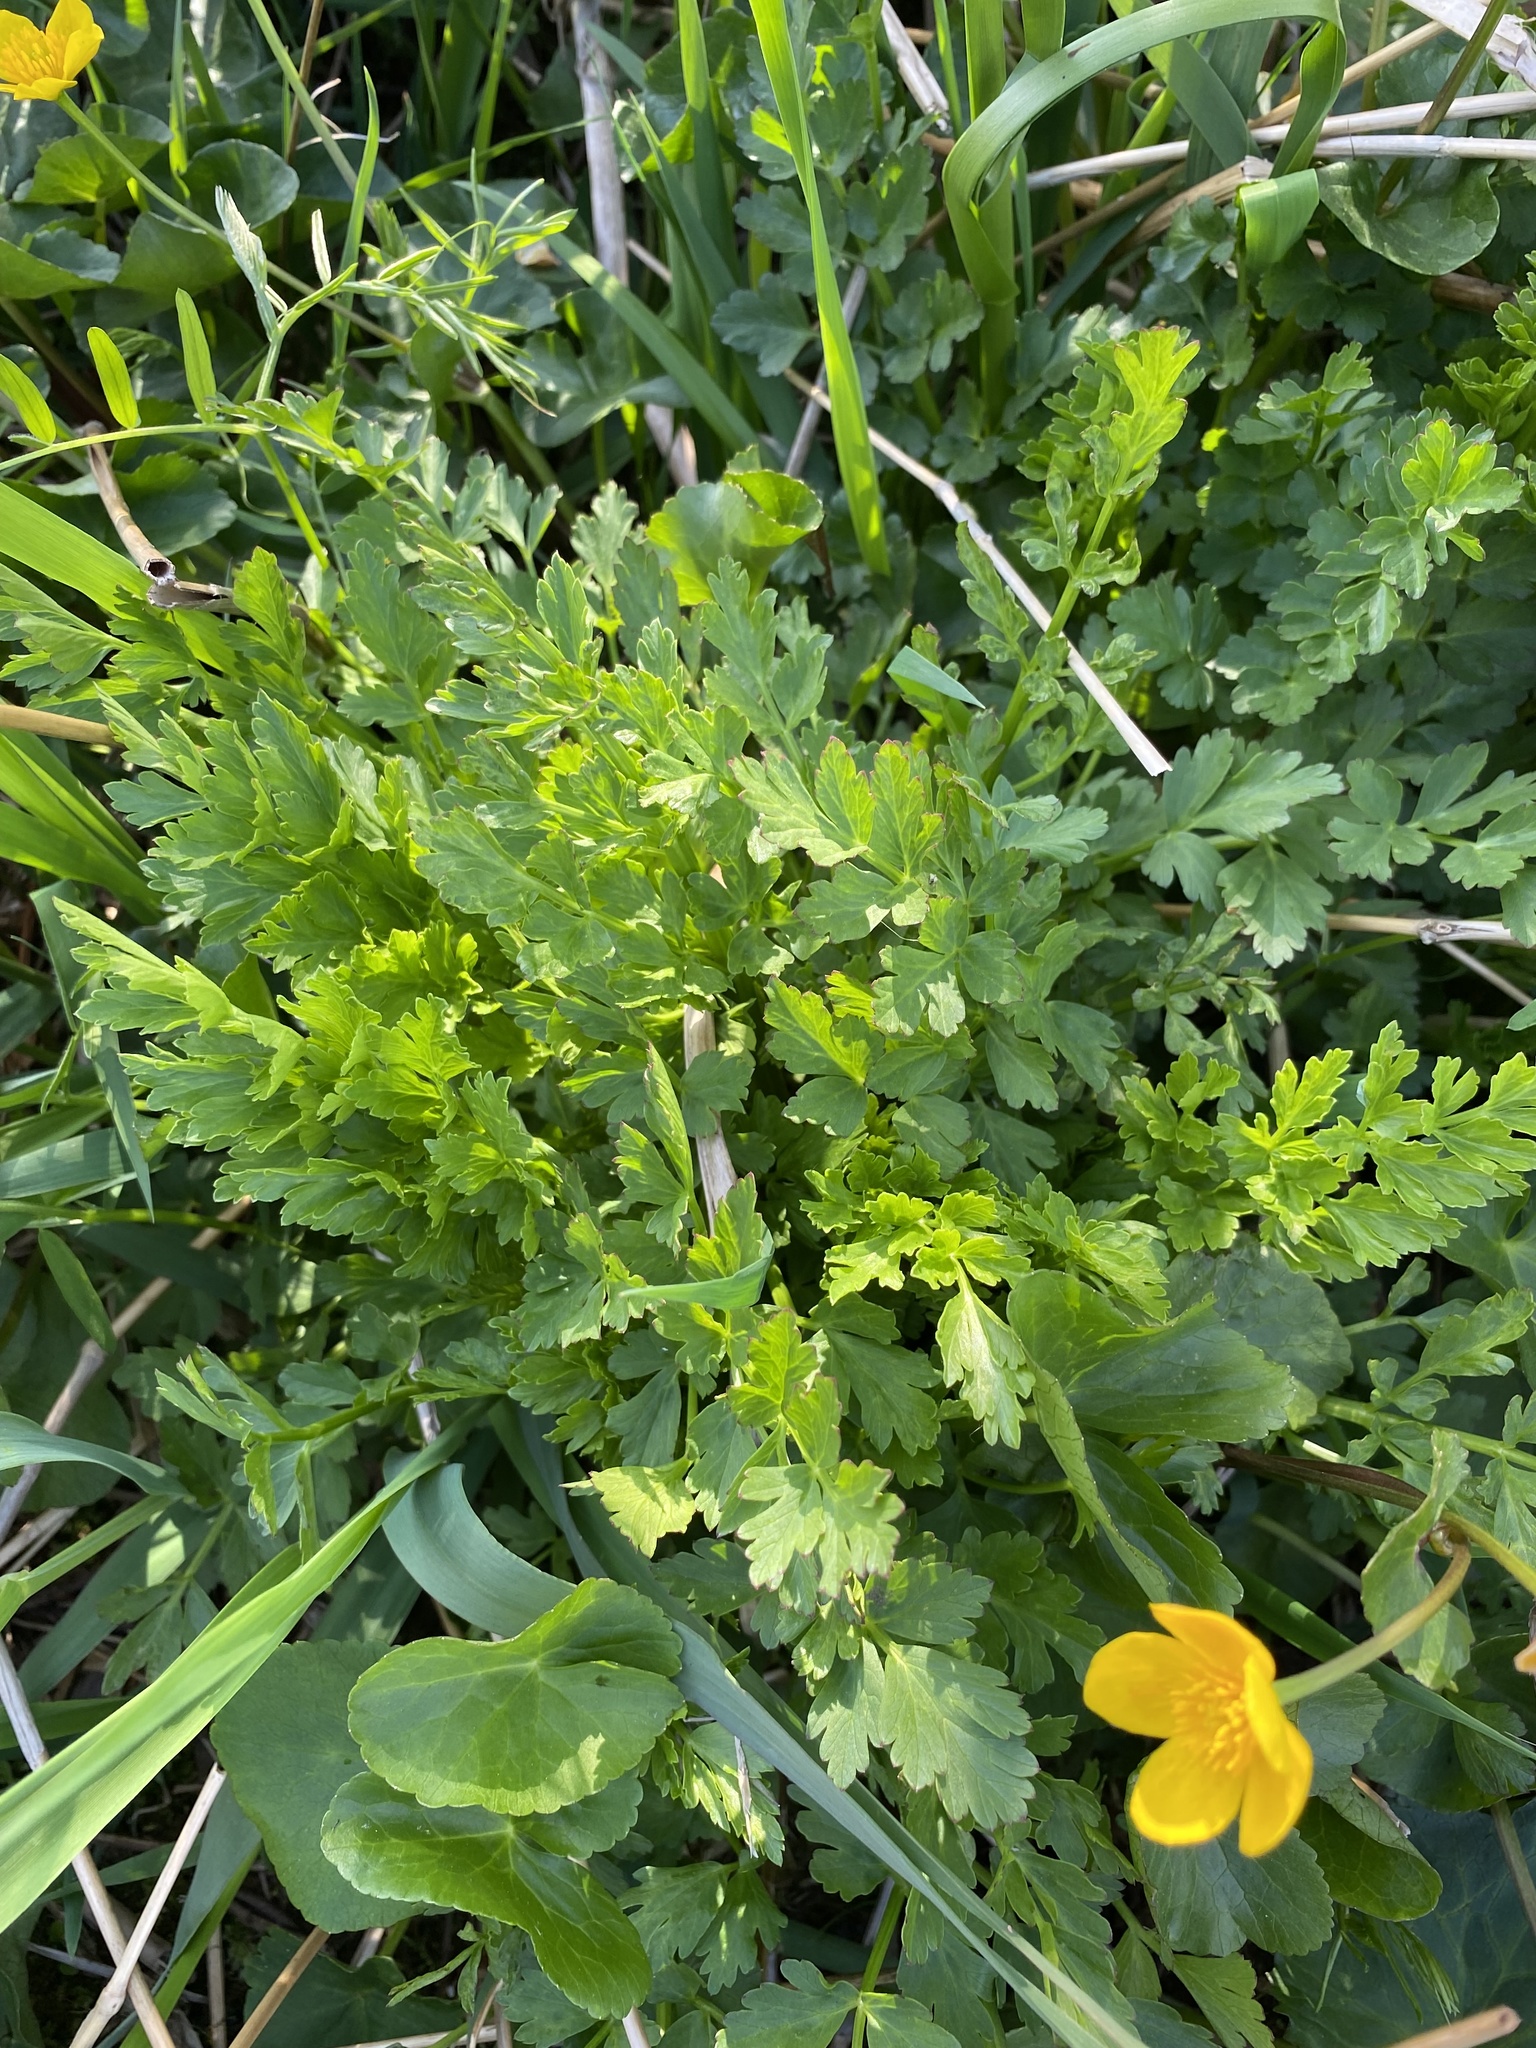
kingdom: Plantae
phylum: Tracheophyta
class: Magnoliopsida
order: Apiales
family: Apiaceae
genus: Oenanthe
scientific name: Oenanthe crocata
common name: Hemlock water-dropwort
